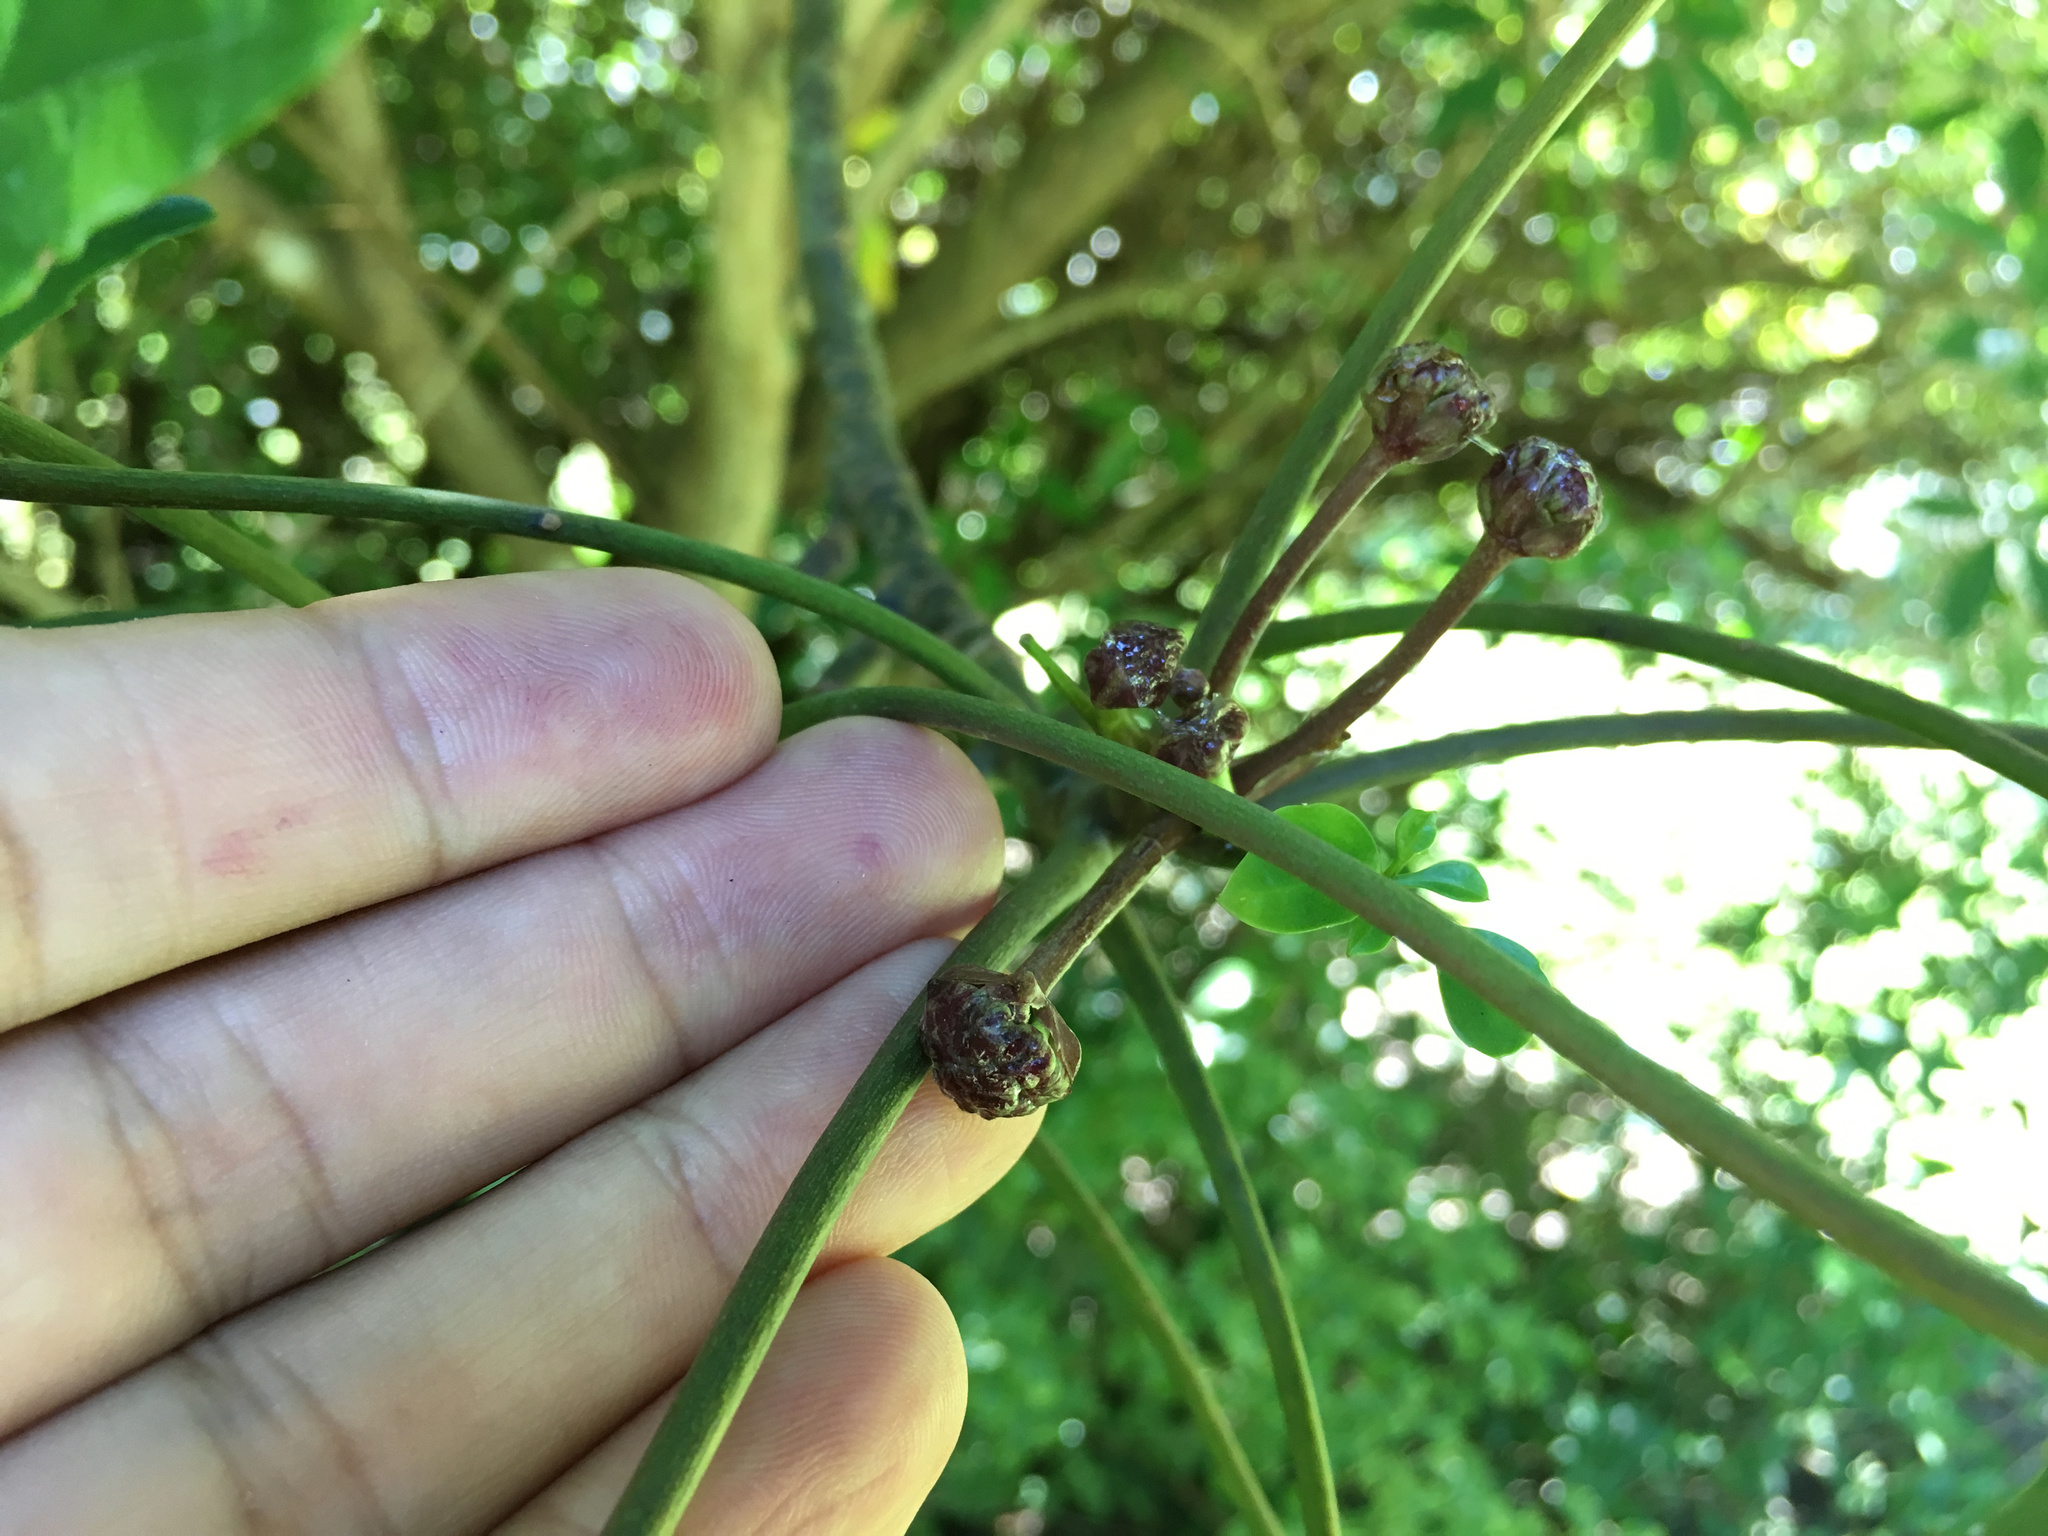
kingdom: Plantae
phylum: Tracheophyta
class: Magnoliopsida
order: Apiales
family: Araliaceae
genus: Neopanax
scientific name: Neopanax arboreus
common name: Five-fingers
